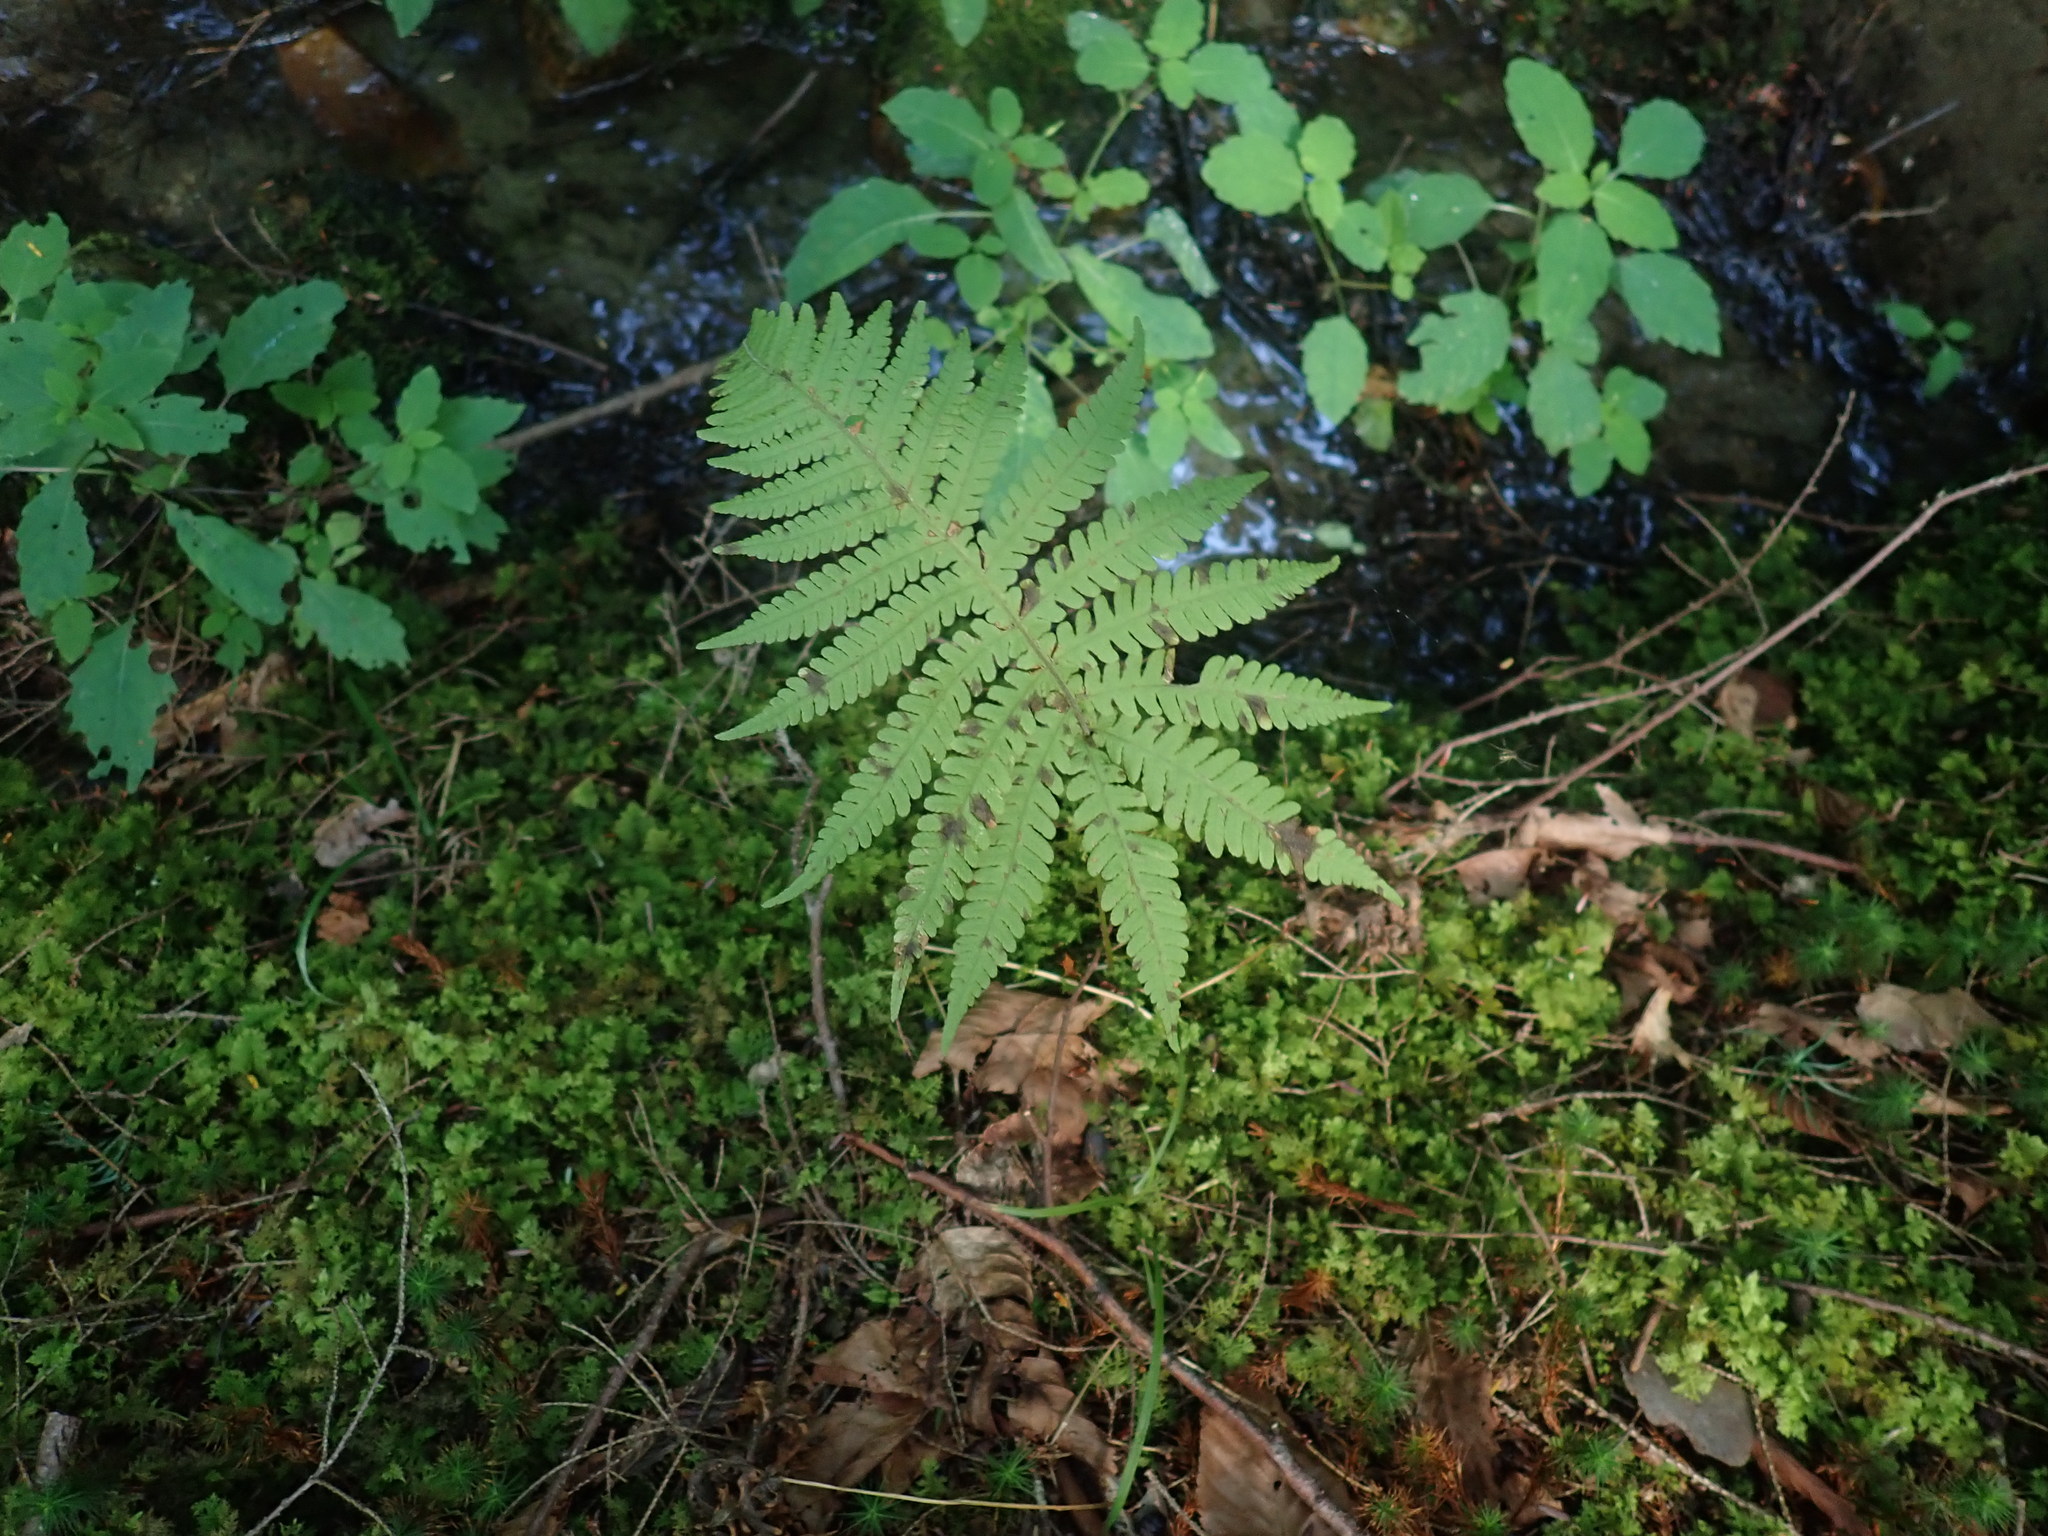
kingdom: Plantae
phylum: Tracheophyta
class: Polypodiopsida
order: Polypodiales
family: Thelypteridaceae
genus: Phegopteris
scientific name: Phegopteris connectilis
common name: Beech fern
